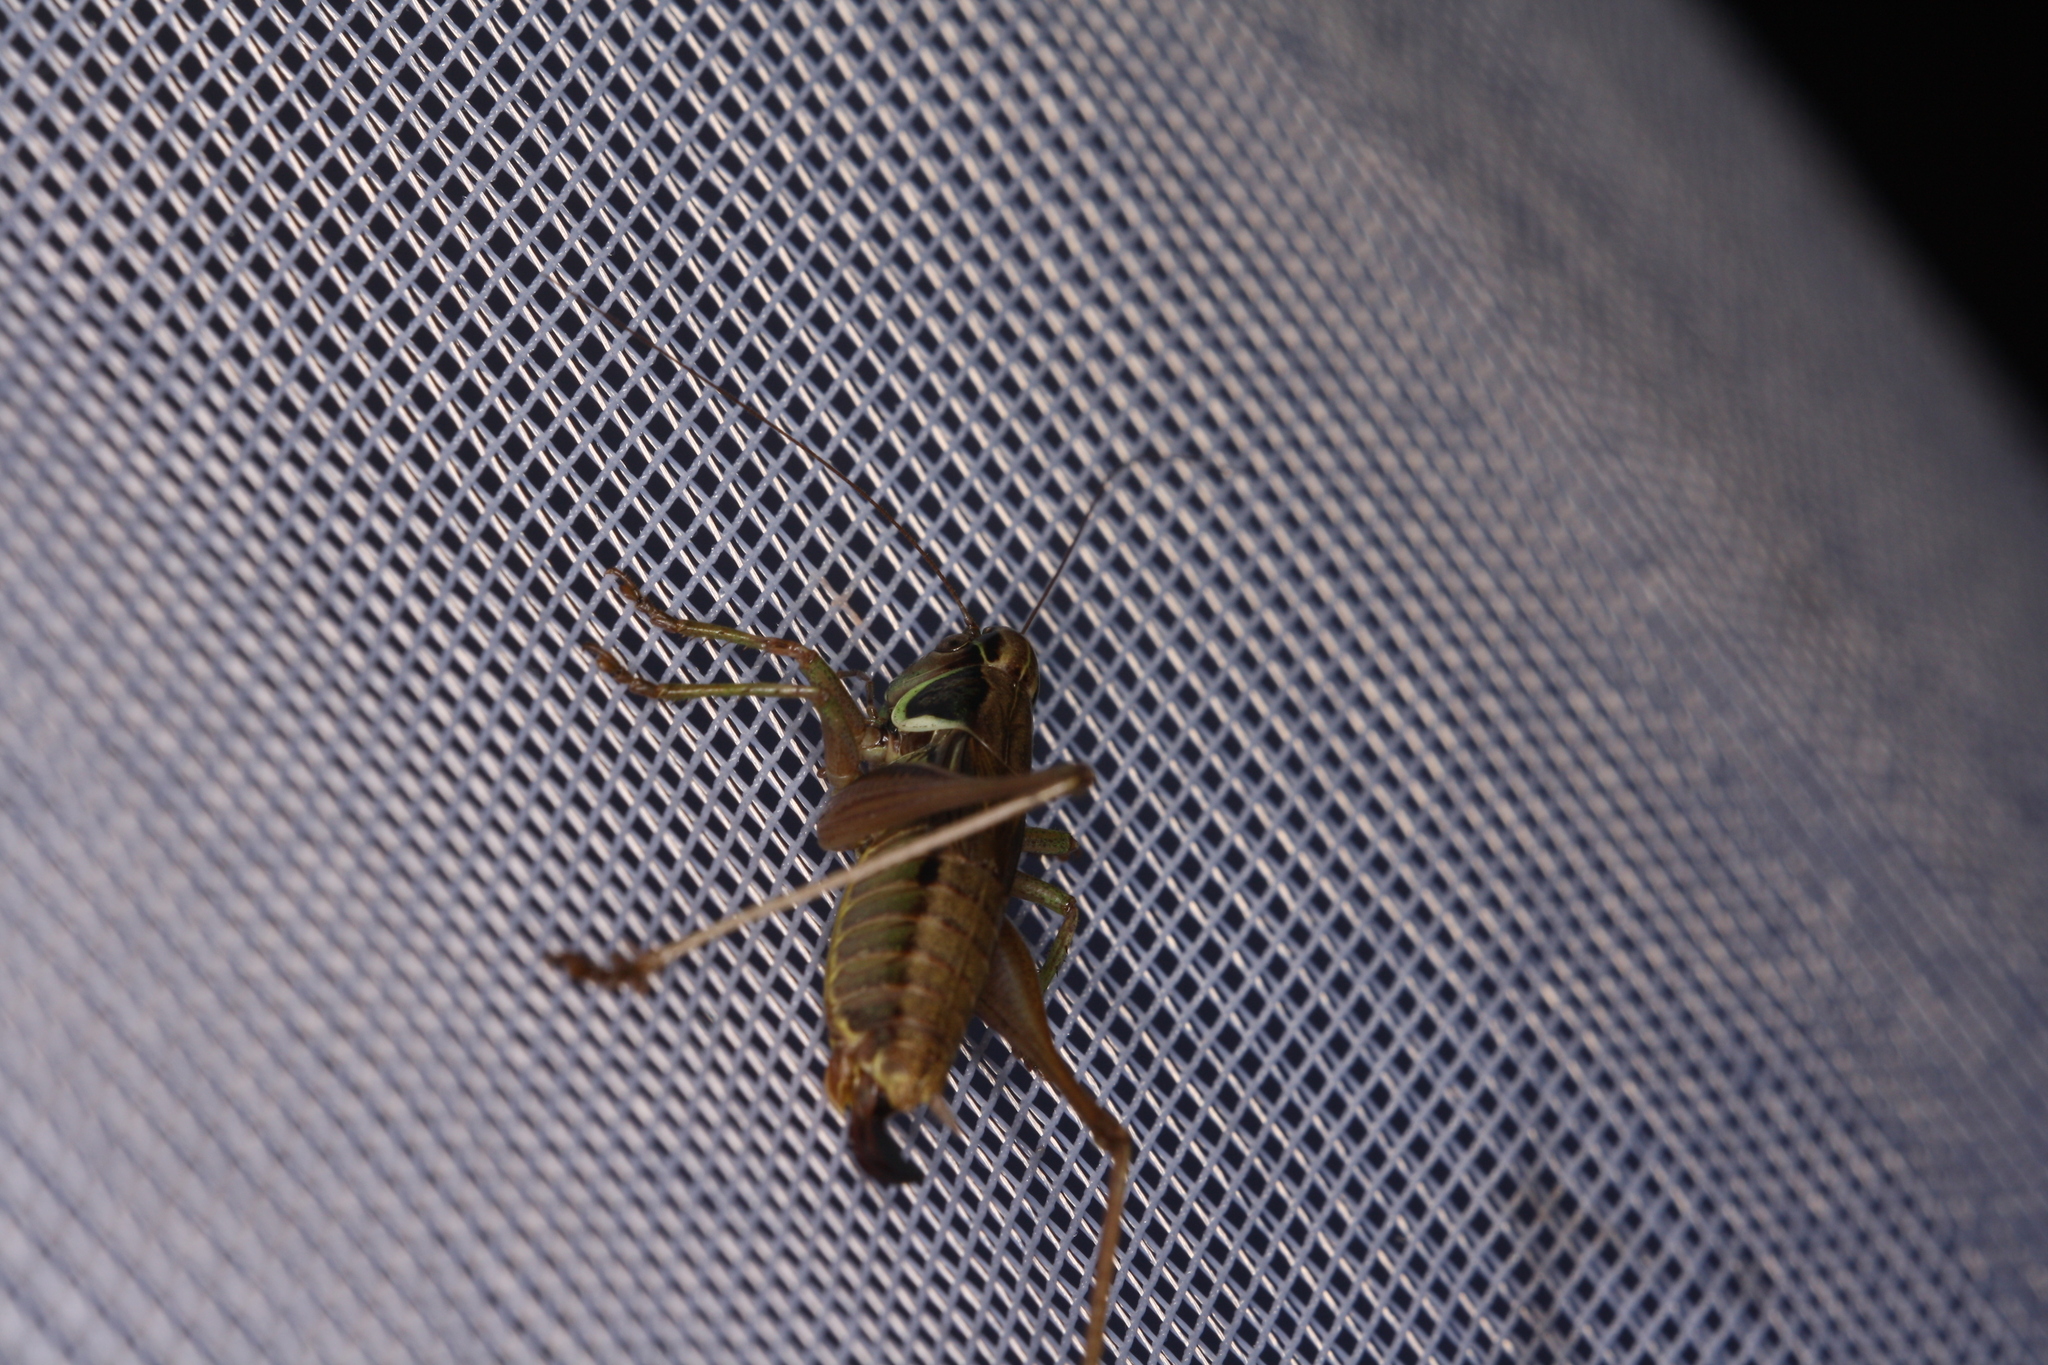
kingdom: Animalia
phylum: Arthropoda
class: Insecta
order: Orthoptera
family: Tettigoniidae
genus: Roeseliana
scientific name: Roeseliana roeselii
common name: Roesel's bush cricket
